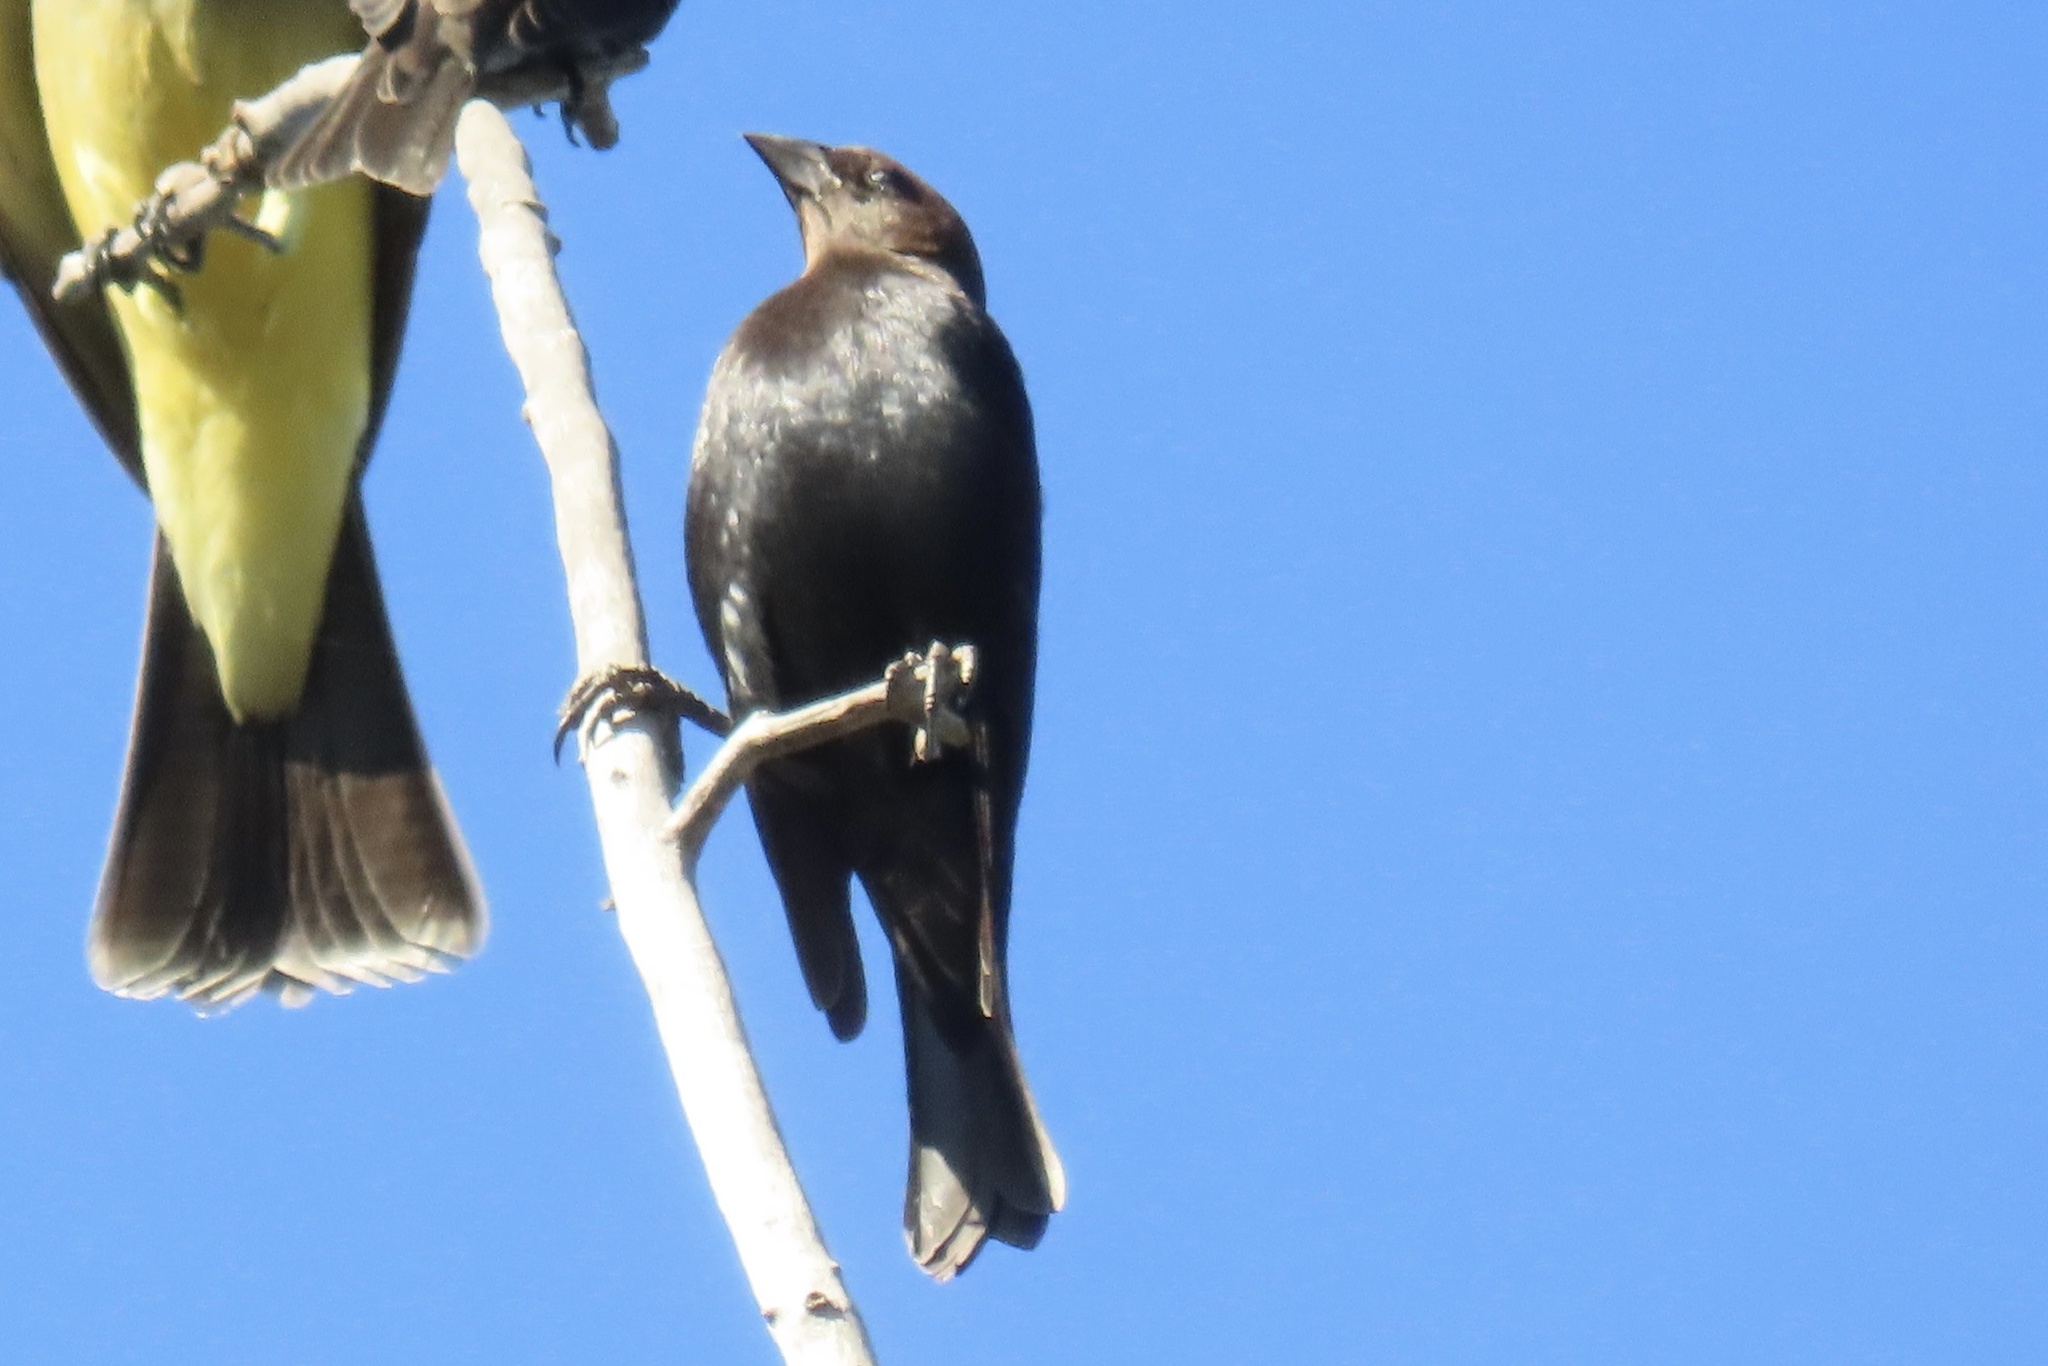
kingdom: Animalia
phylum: Chordata
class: Aves
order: Passeriformes
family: Icteridae
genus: Molothrus
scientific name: Molothrus ater
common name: Brown-headed cowbird
